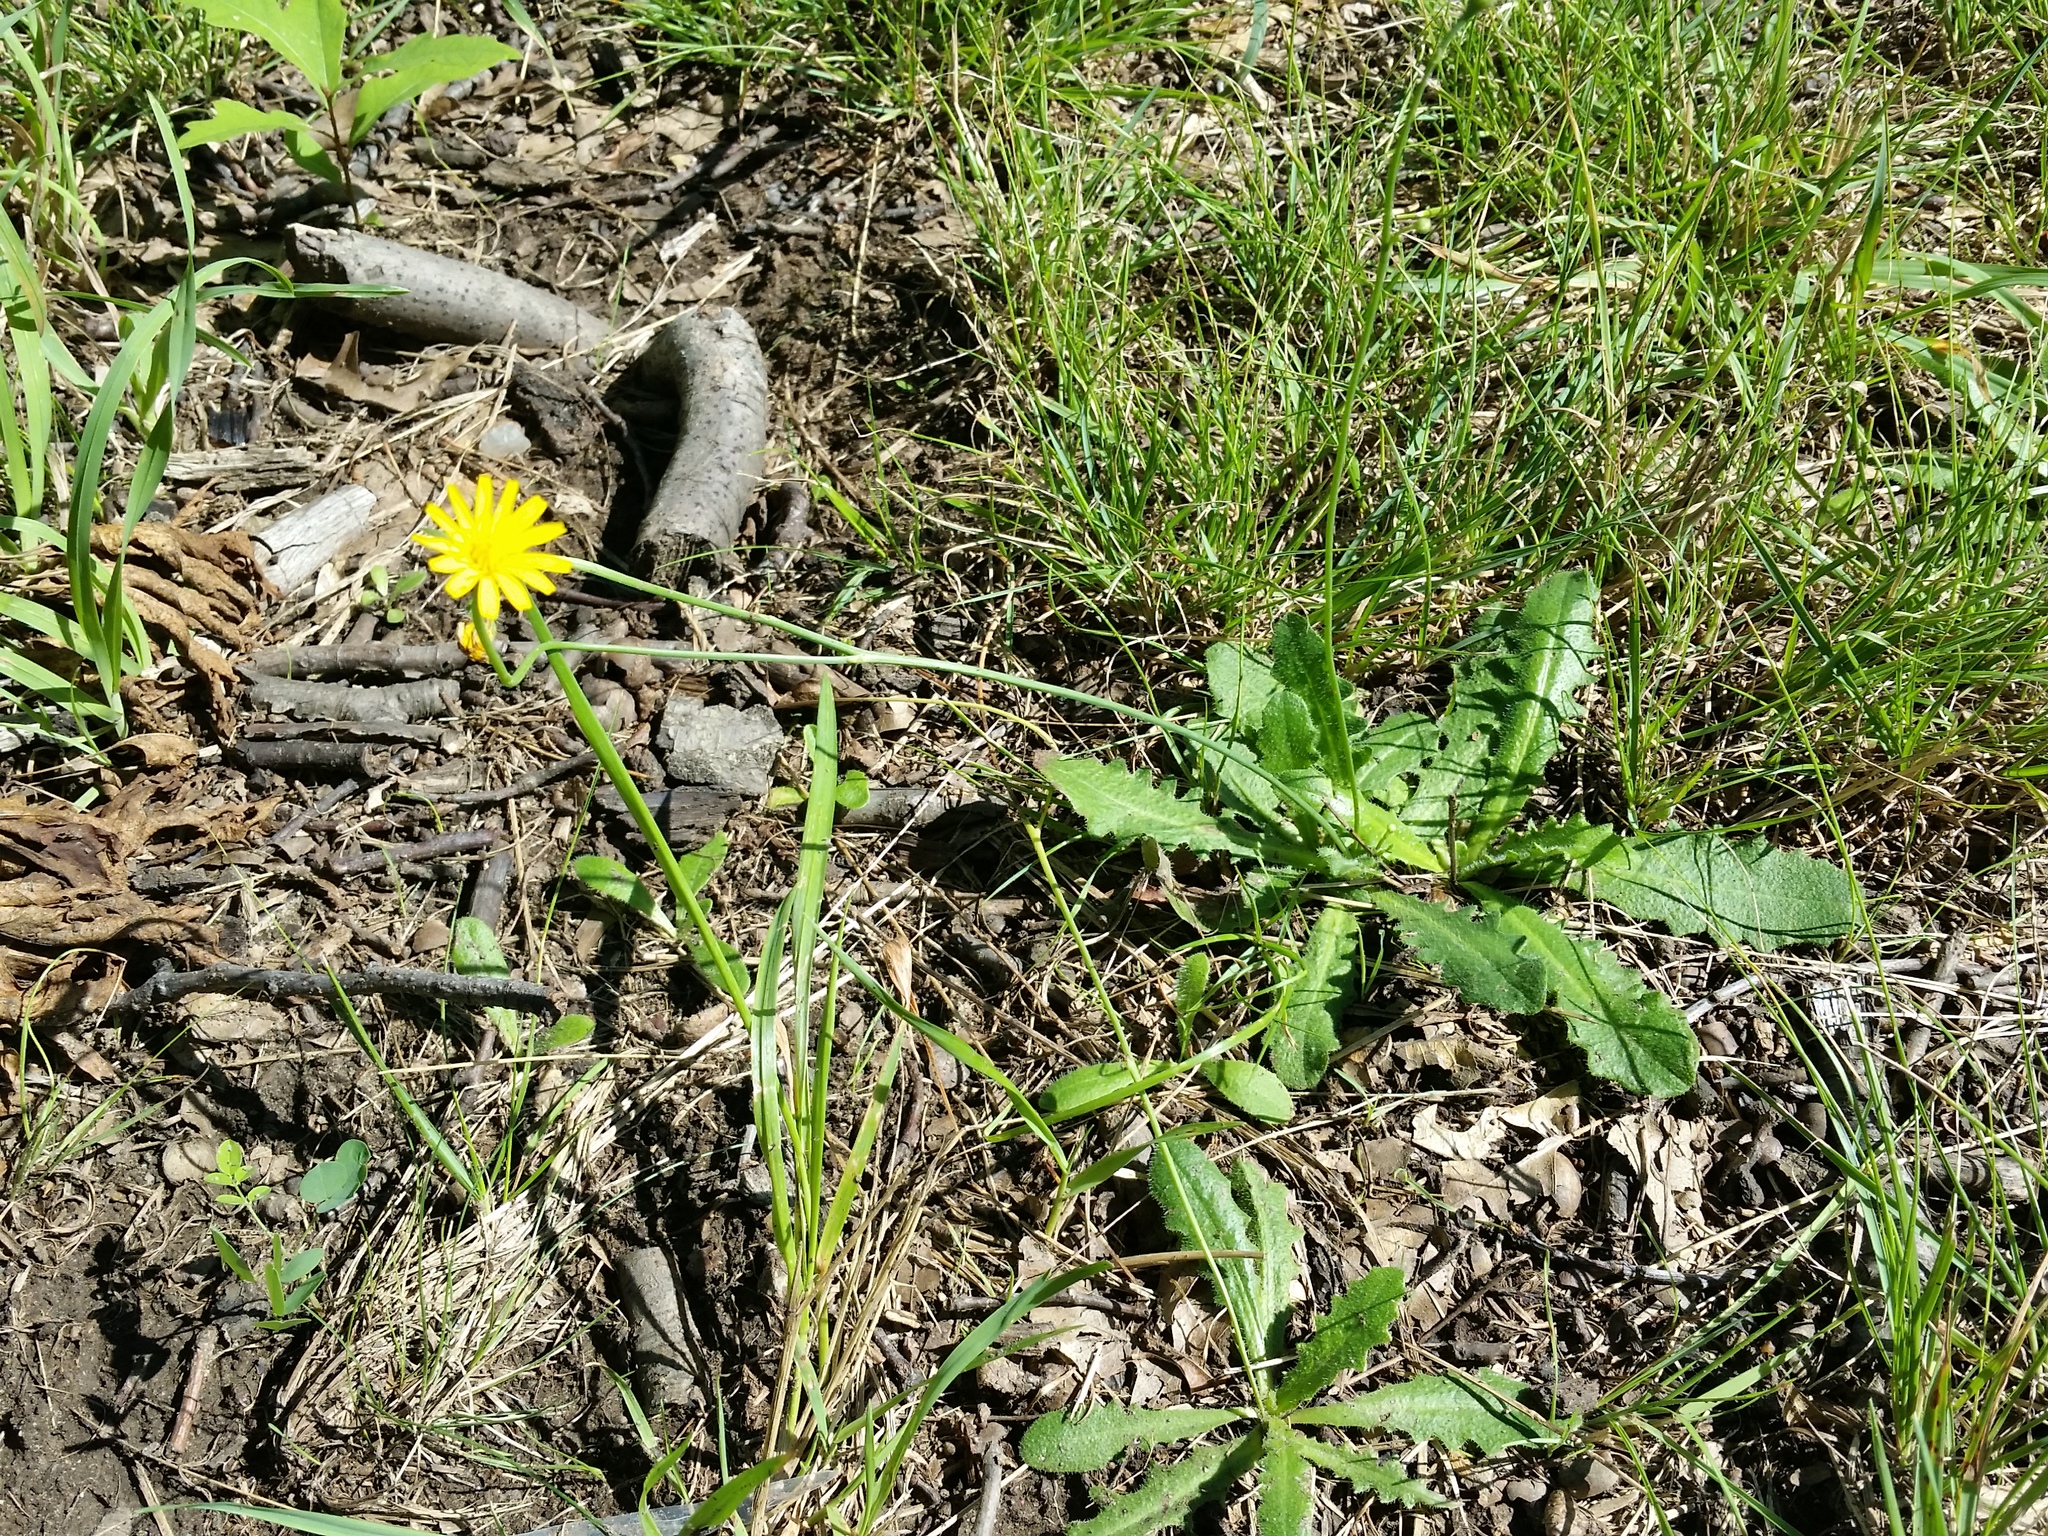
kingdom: Plantae
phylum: Tracheophyta
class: Magnoliopsida
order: Asterales
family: Asteraceae
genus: Hypochaeris
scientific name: Hypochaeris radicata
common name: Flatweed
